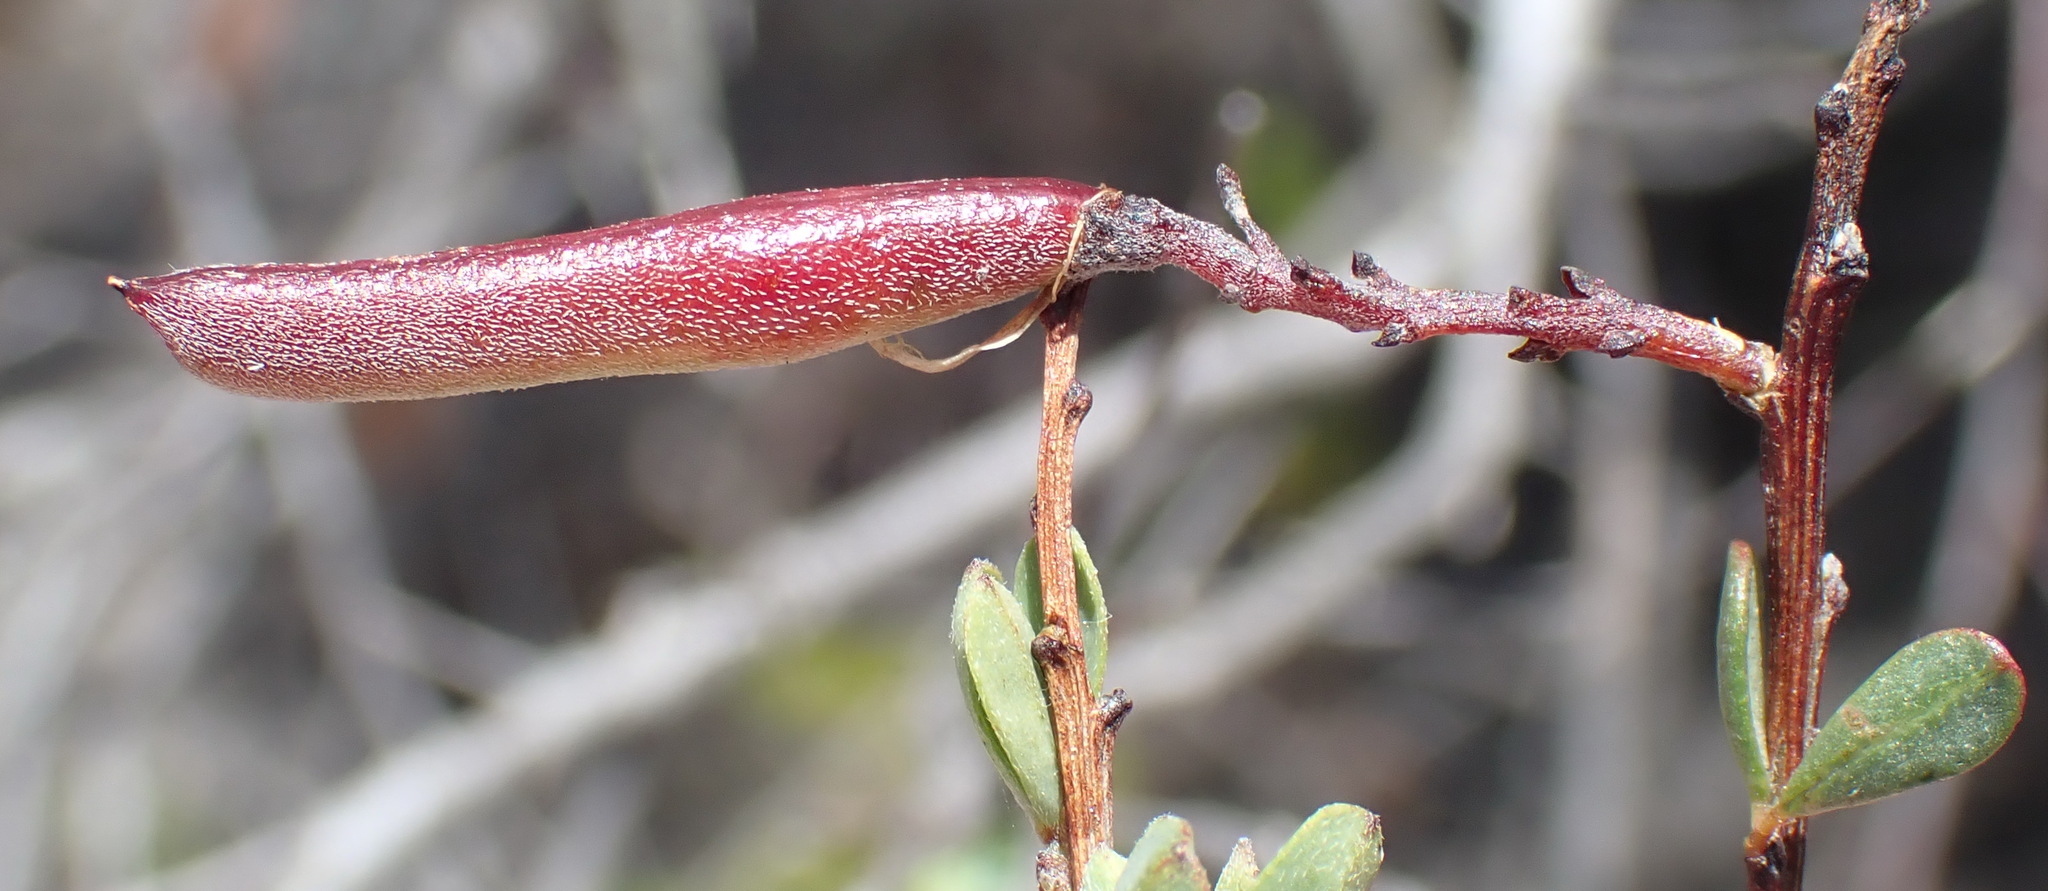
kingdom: Plantae
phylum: Tracheophyta
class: Magnoliopsida
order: Fabales
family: Fabaceae
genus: Indigofera
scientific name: Indigofera denudata
